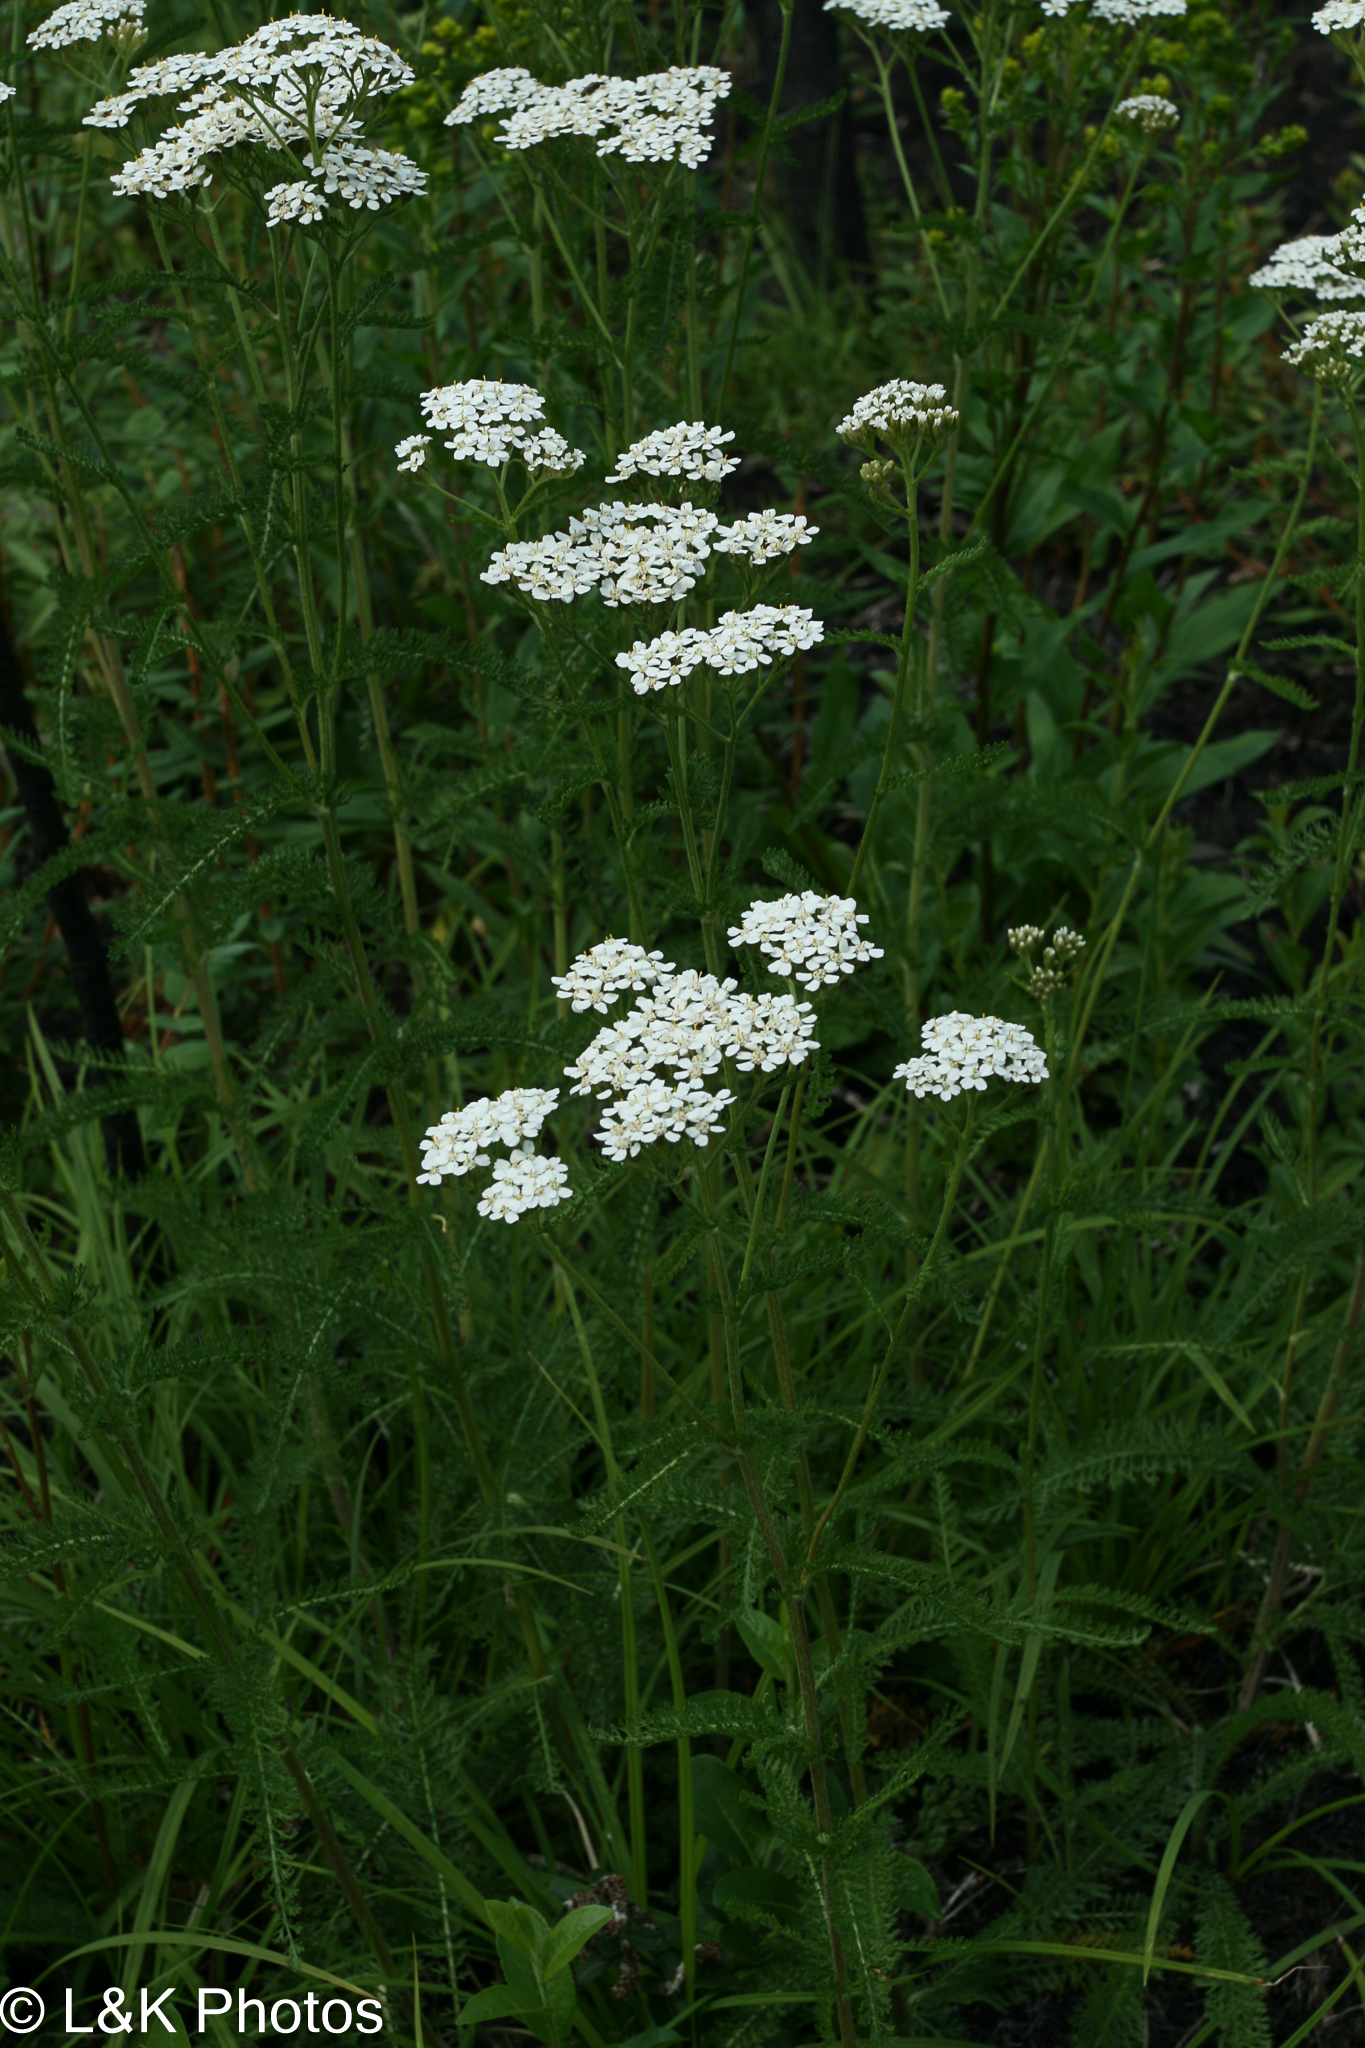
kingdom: Plantae
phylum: Tracheophyta
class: Magnoliopsida
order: Asterales
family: Asteraceae
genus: Achillea
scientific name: Achillea millefolium
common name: Yarrow
